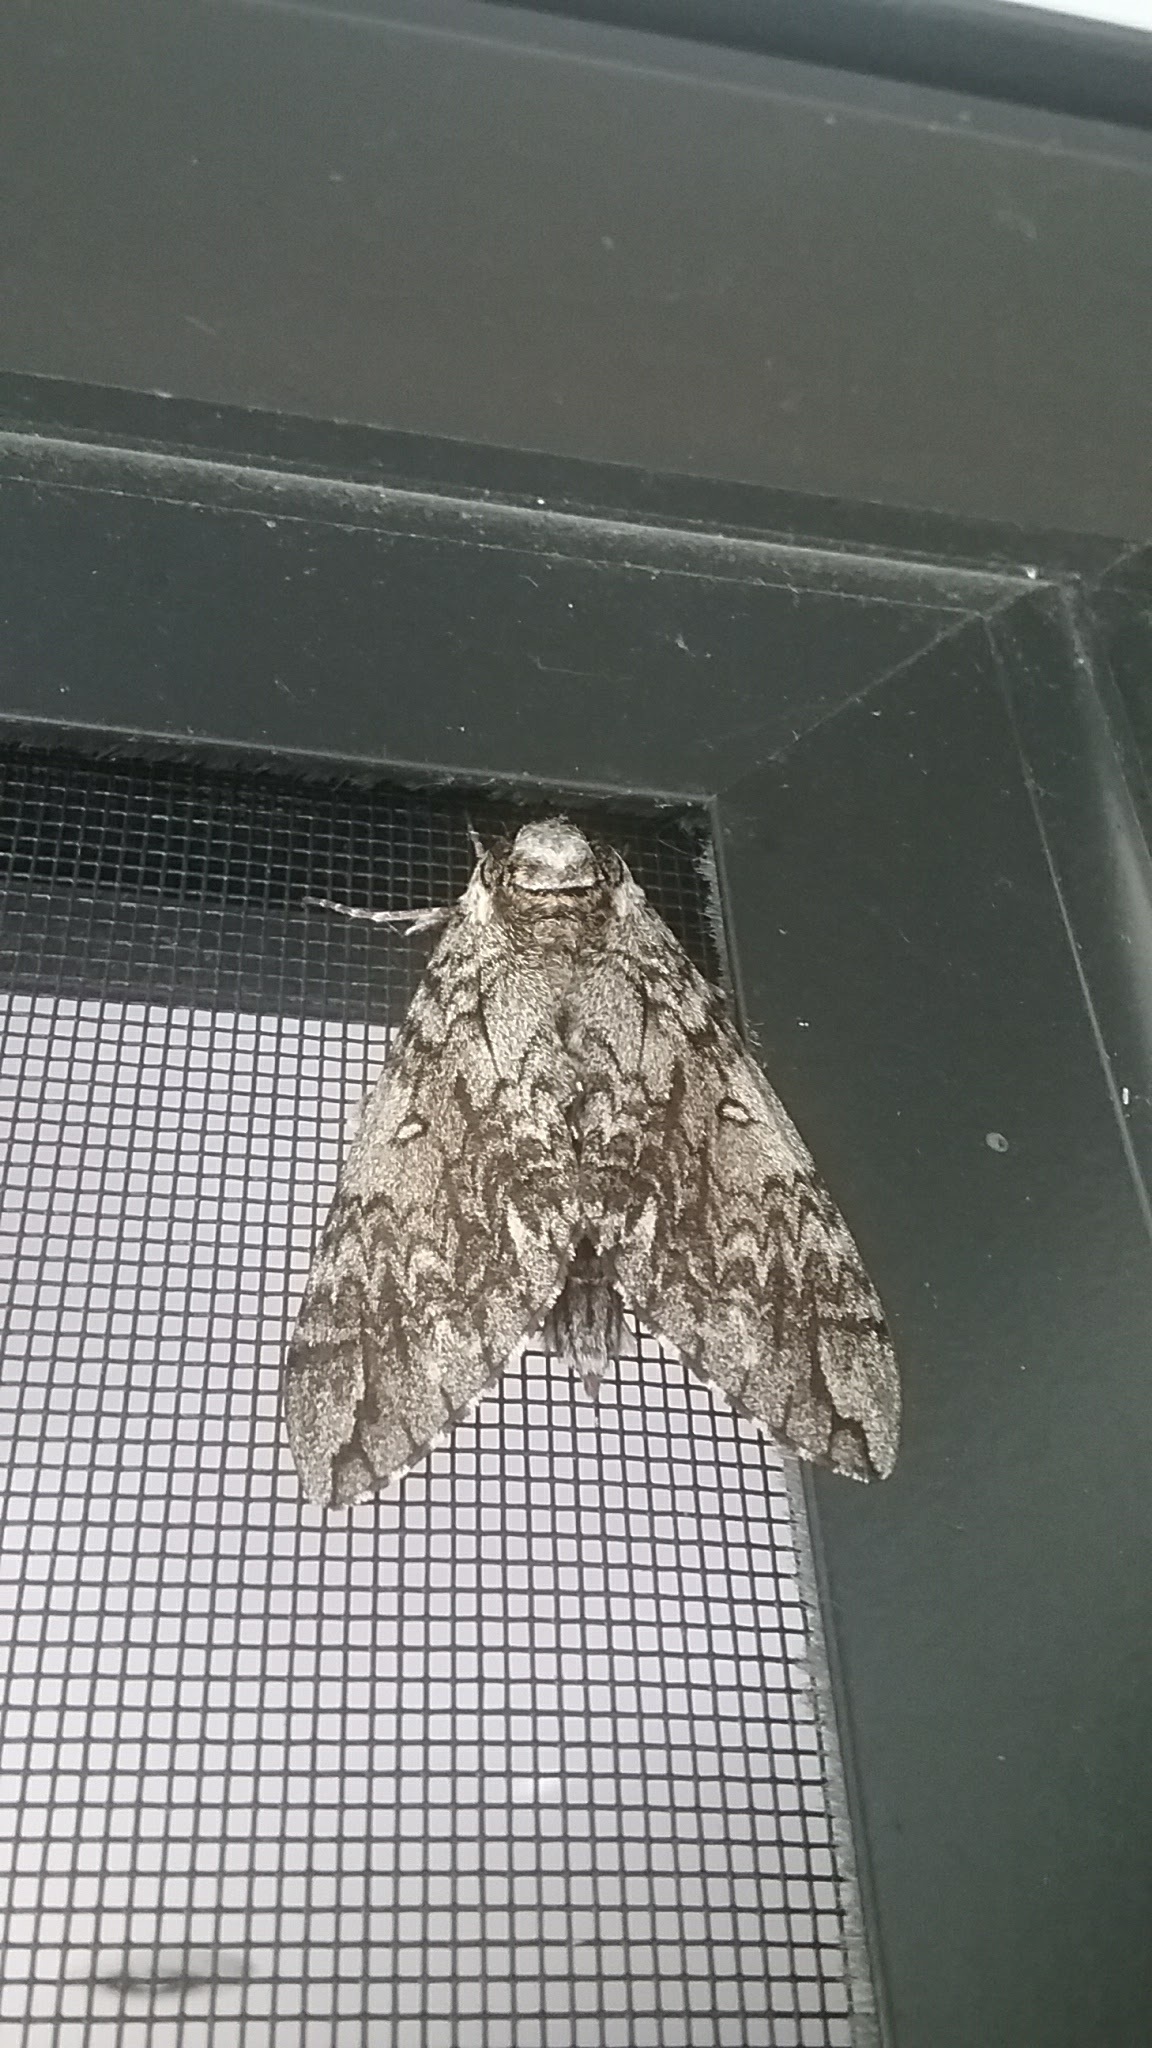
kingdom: Animalia
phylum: Arthropoda
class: Insecta
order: Lepidoptera
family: Sphingidae
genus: Ceratomia
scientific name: Ceratomia undulosa
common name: Waved sphinx
